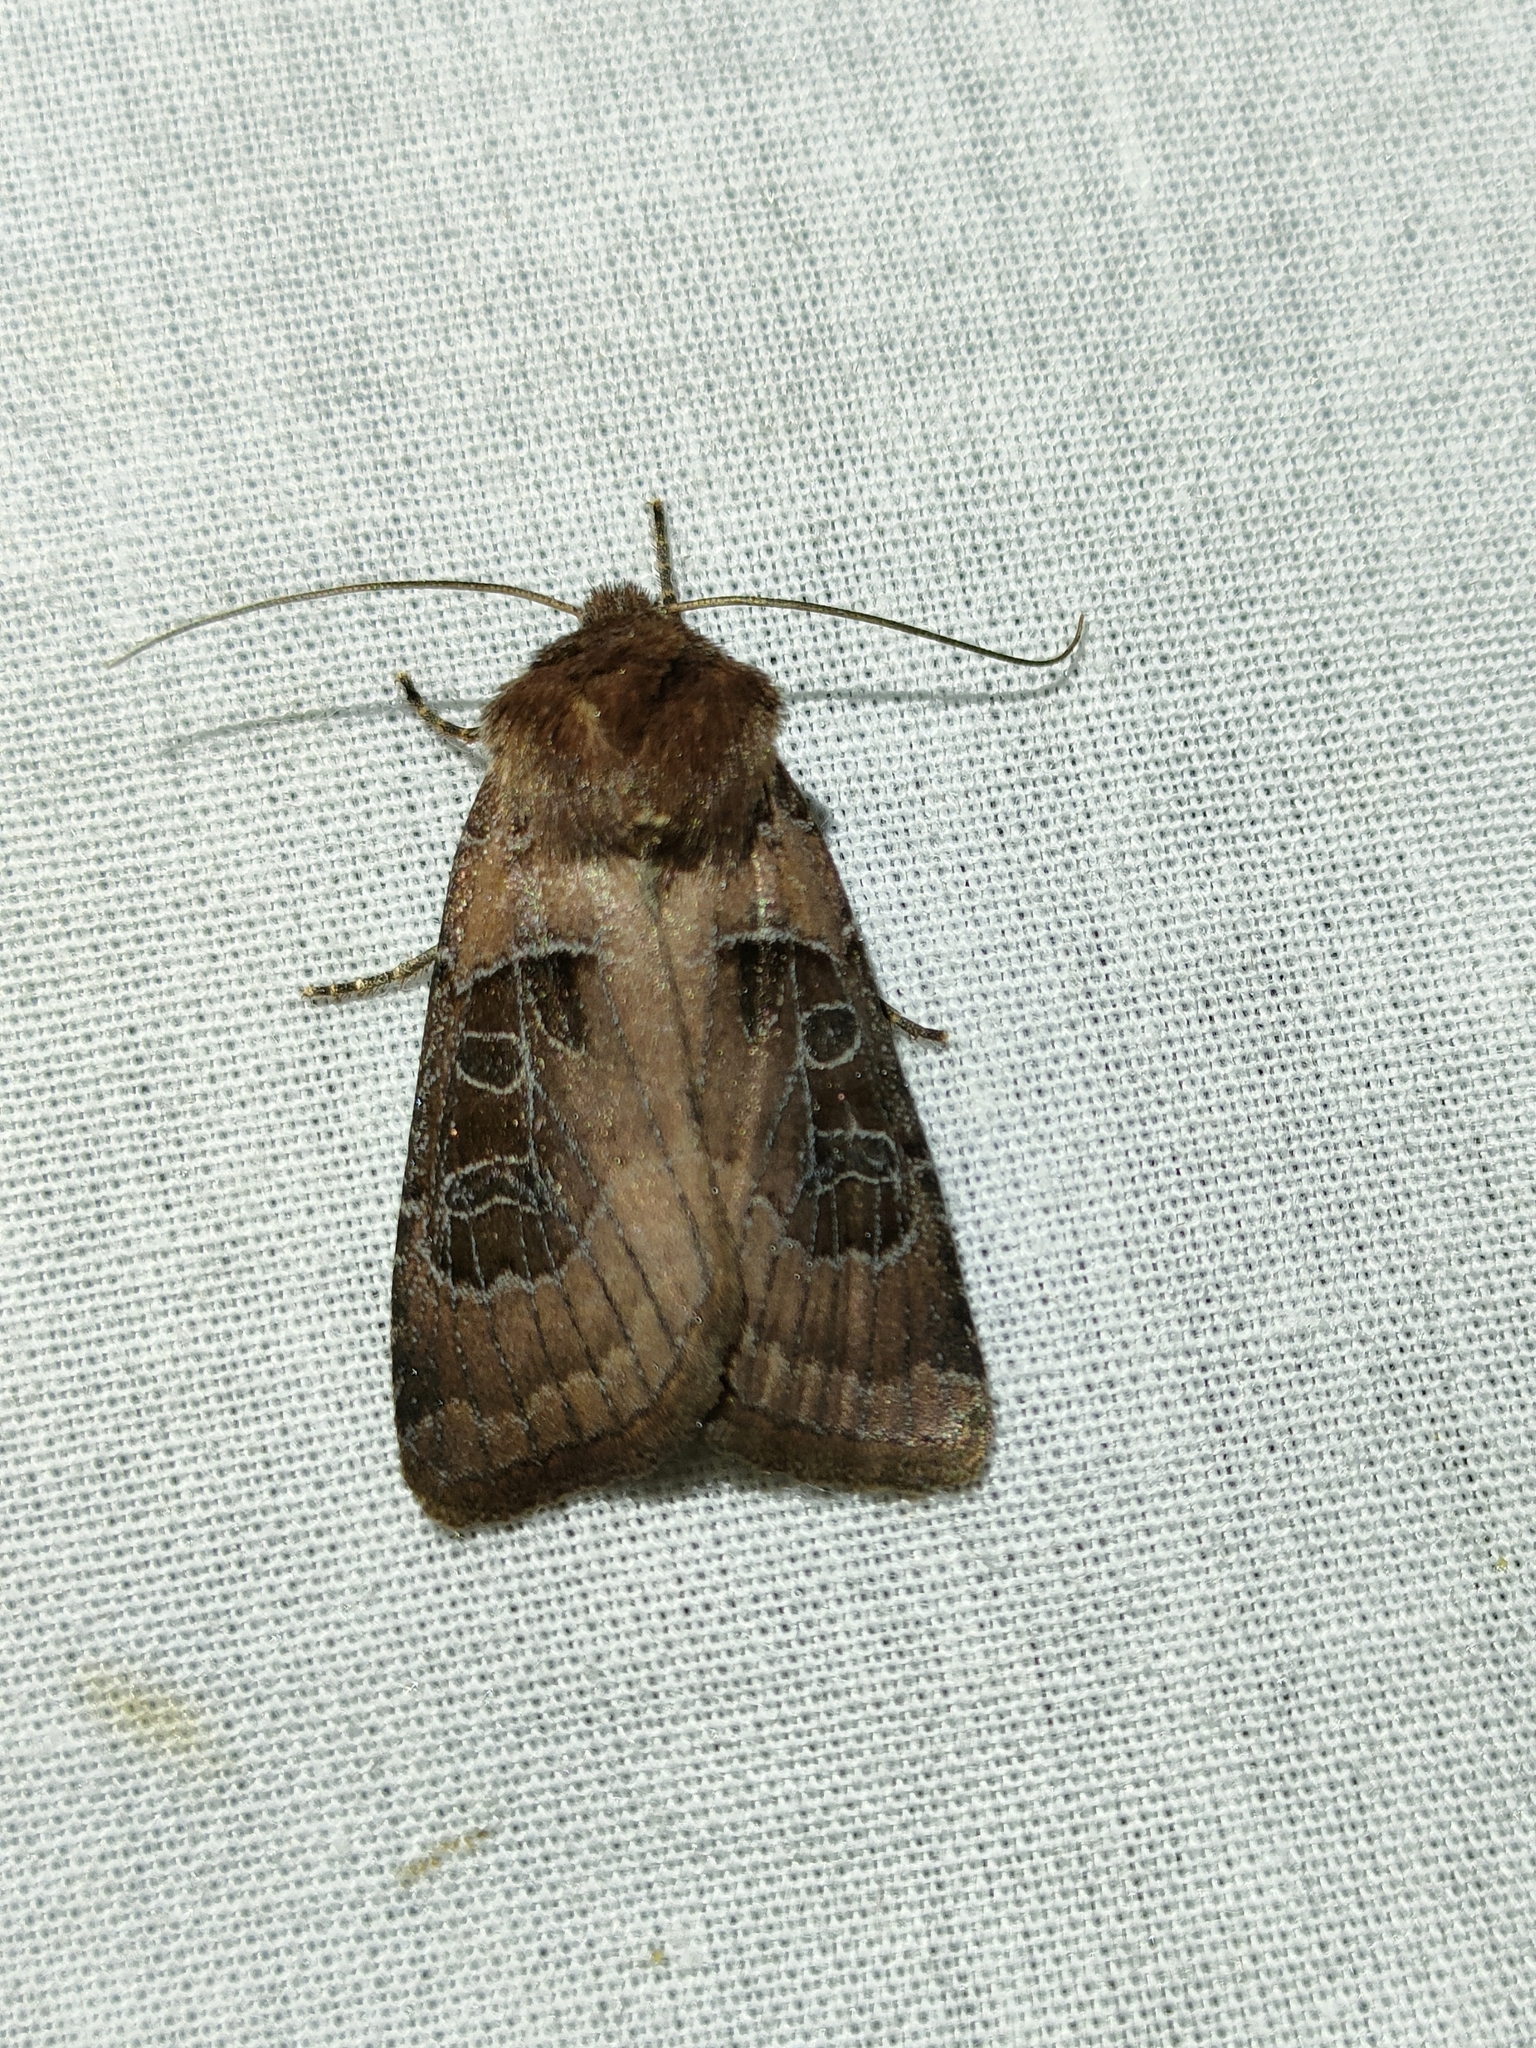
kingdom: Animalia
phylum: Arthropoda
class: Insecta
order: Lepidoptera
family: Noctuidae
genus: Chersotis
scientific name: Chersotis cuprea
